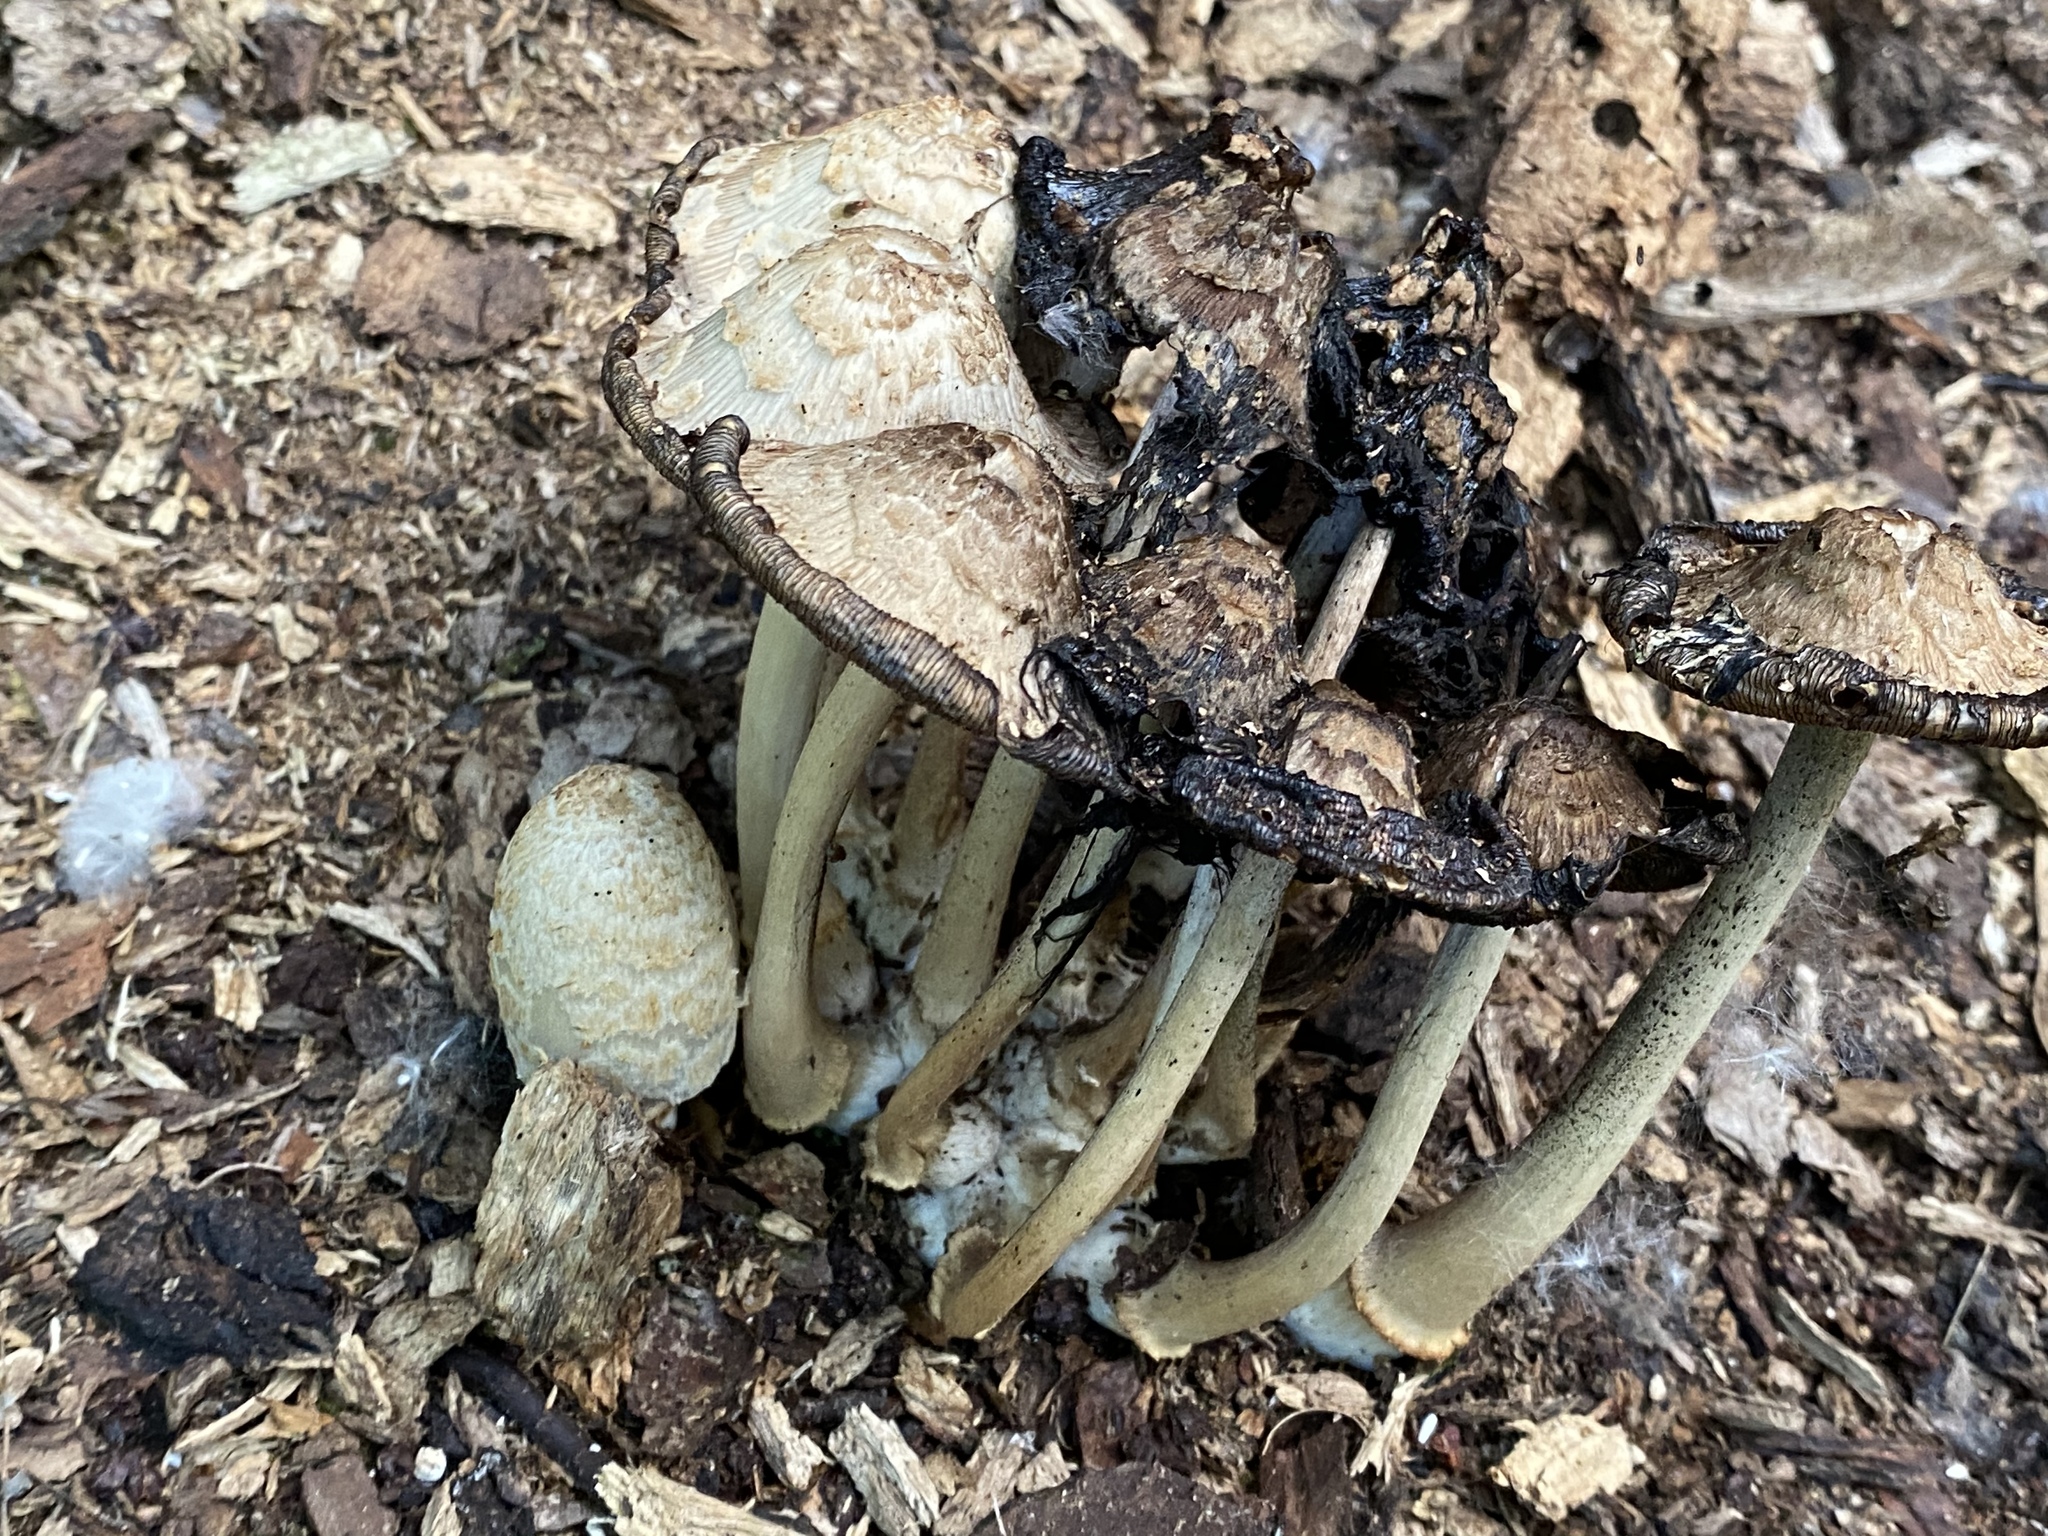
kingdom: Fungi
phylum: Basidiomycota
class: Agaricomycetes
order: Agaricales
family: Psathyrellaceae
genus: Coprinopsis
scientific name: Coprinopsis variegata
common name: Scaly ink cap
